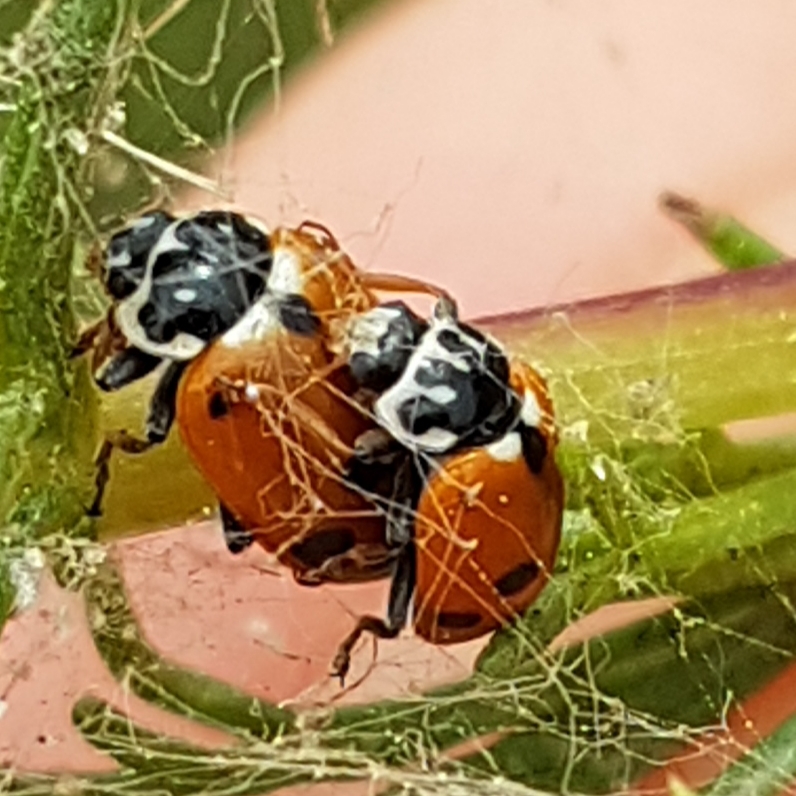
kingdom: Animalia
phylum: Arthropoda
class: Insecta
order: Coleoptera
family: Coccinellidae
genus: Hippodamia
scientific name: Hippodamia variegata
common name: Ladybird beetle
